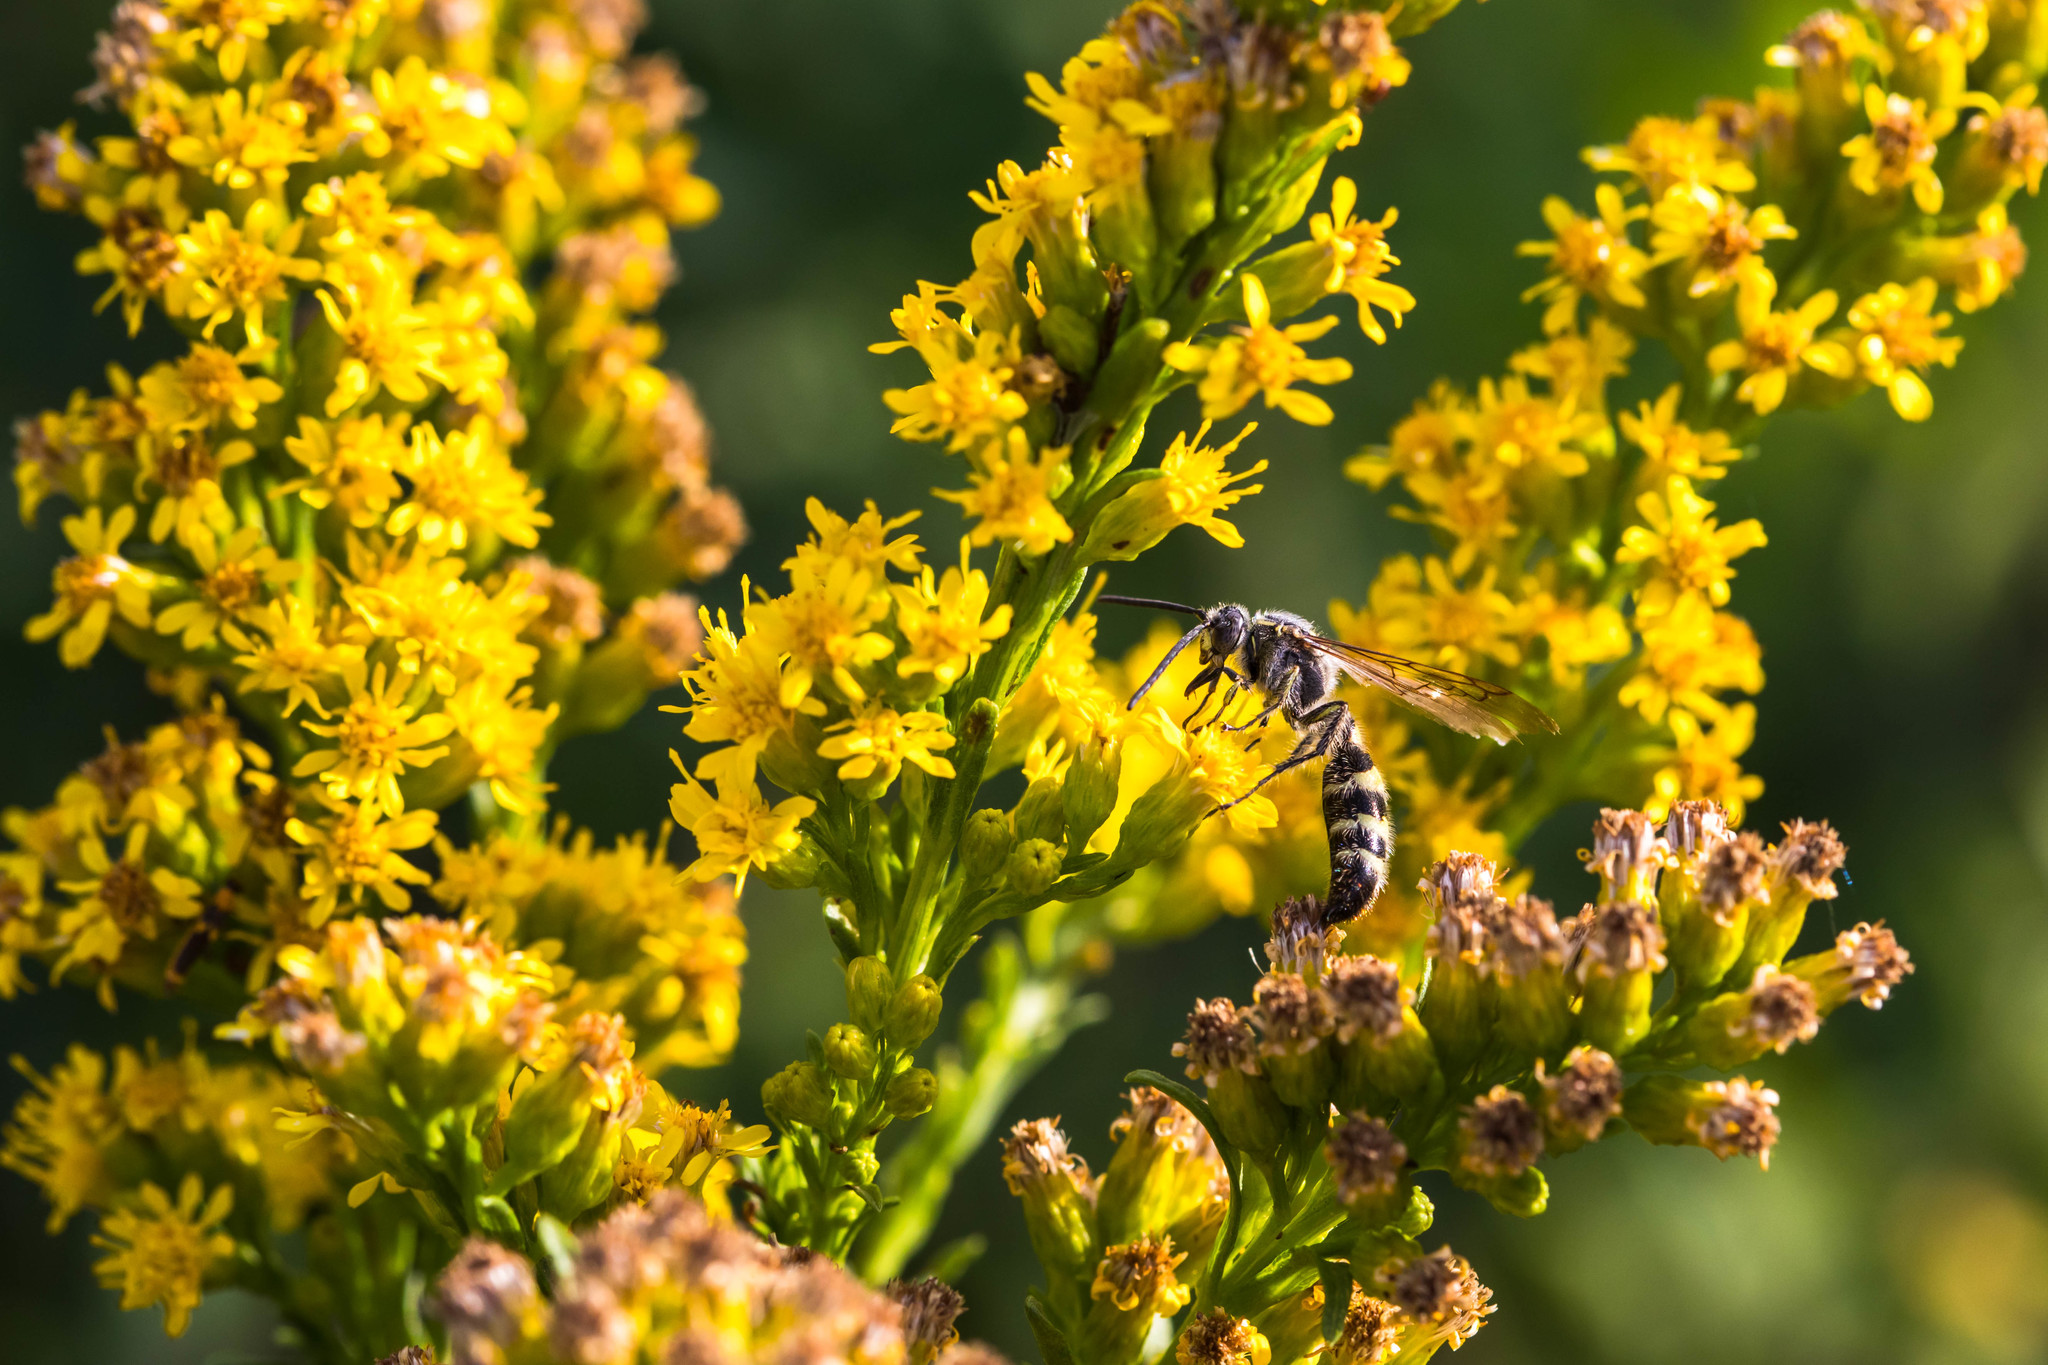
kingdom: Animalia
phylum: Arthropoda
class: Insecta
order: Hymenoptera
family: Scoliidae
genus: Dielis
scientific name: Dielis tolteca
